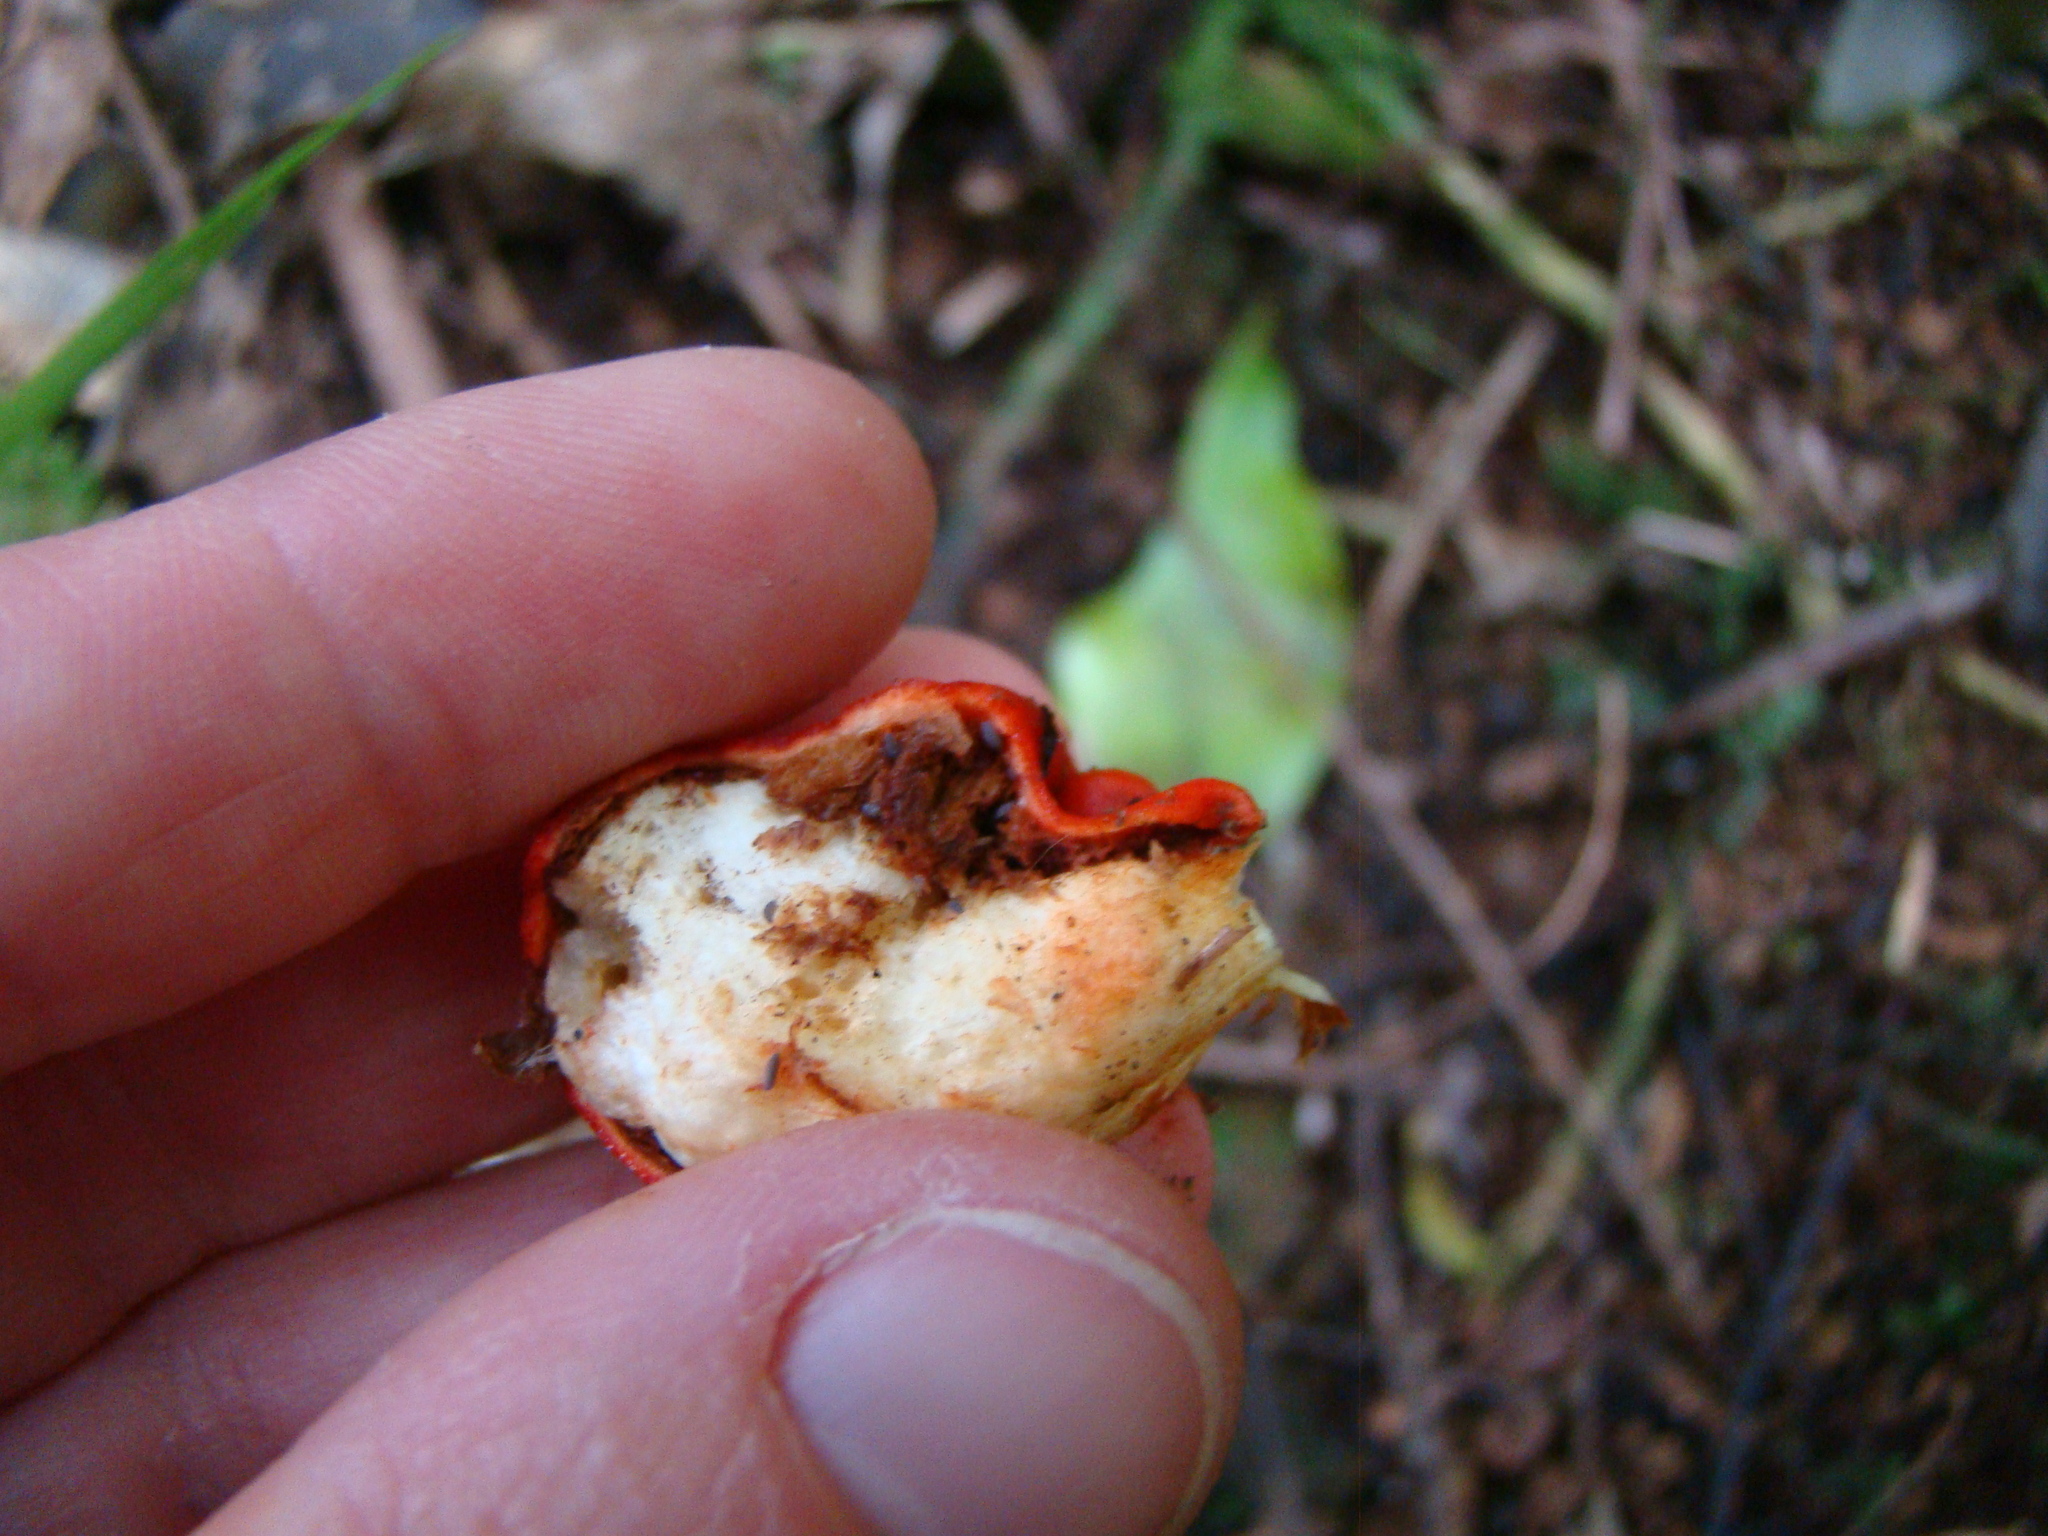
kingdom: Fungi
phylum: Basidiomycota
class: Agaricomycetes
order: Agaricales
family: Strophariaceae
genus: Leratiomyces
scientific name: Leratiomyces erythrocephalus
